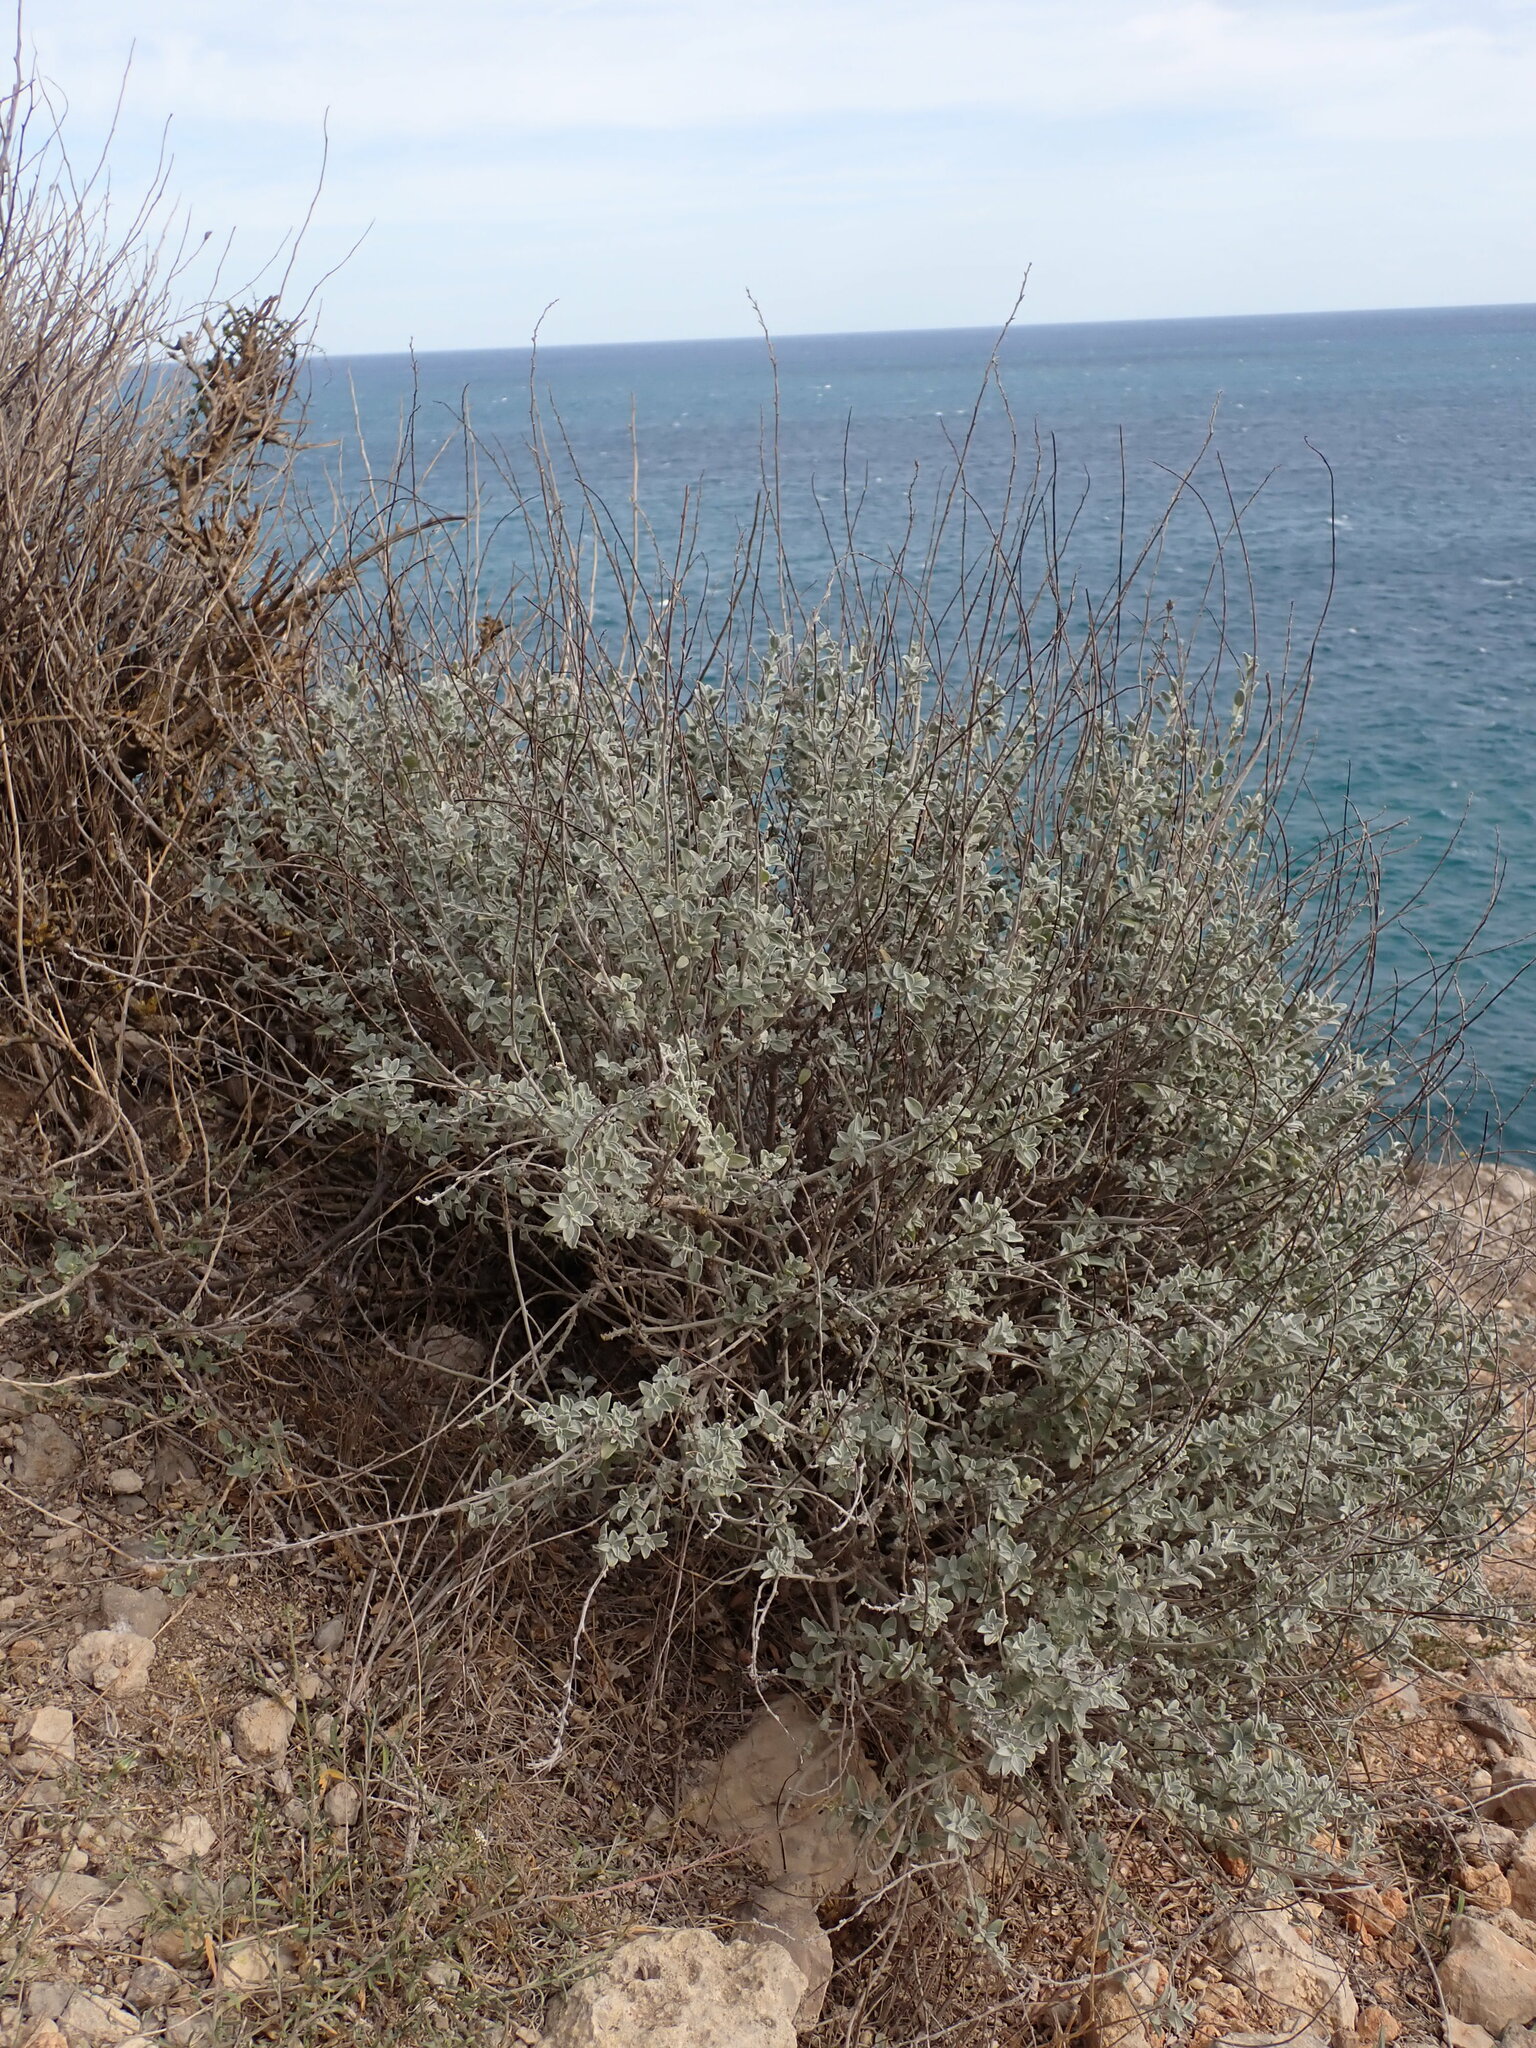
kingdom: Plantae
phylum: Tracheophyta
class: Magnoliopsida
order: Fabales
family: Fabaceae
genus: Anthyllis
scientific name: Anthyllis cytisoides
